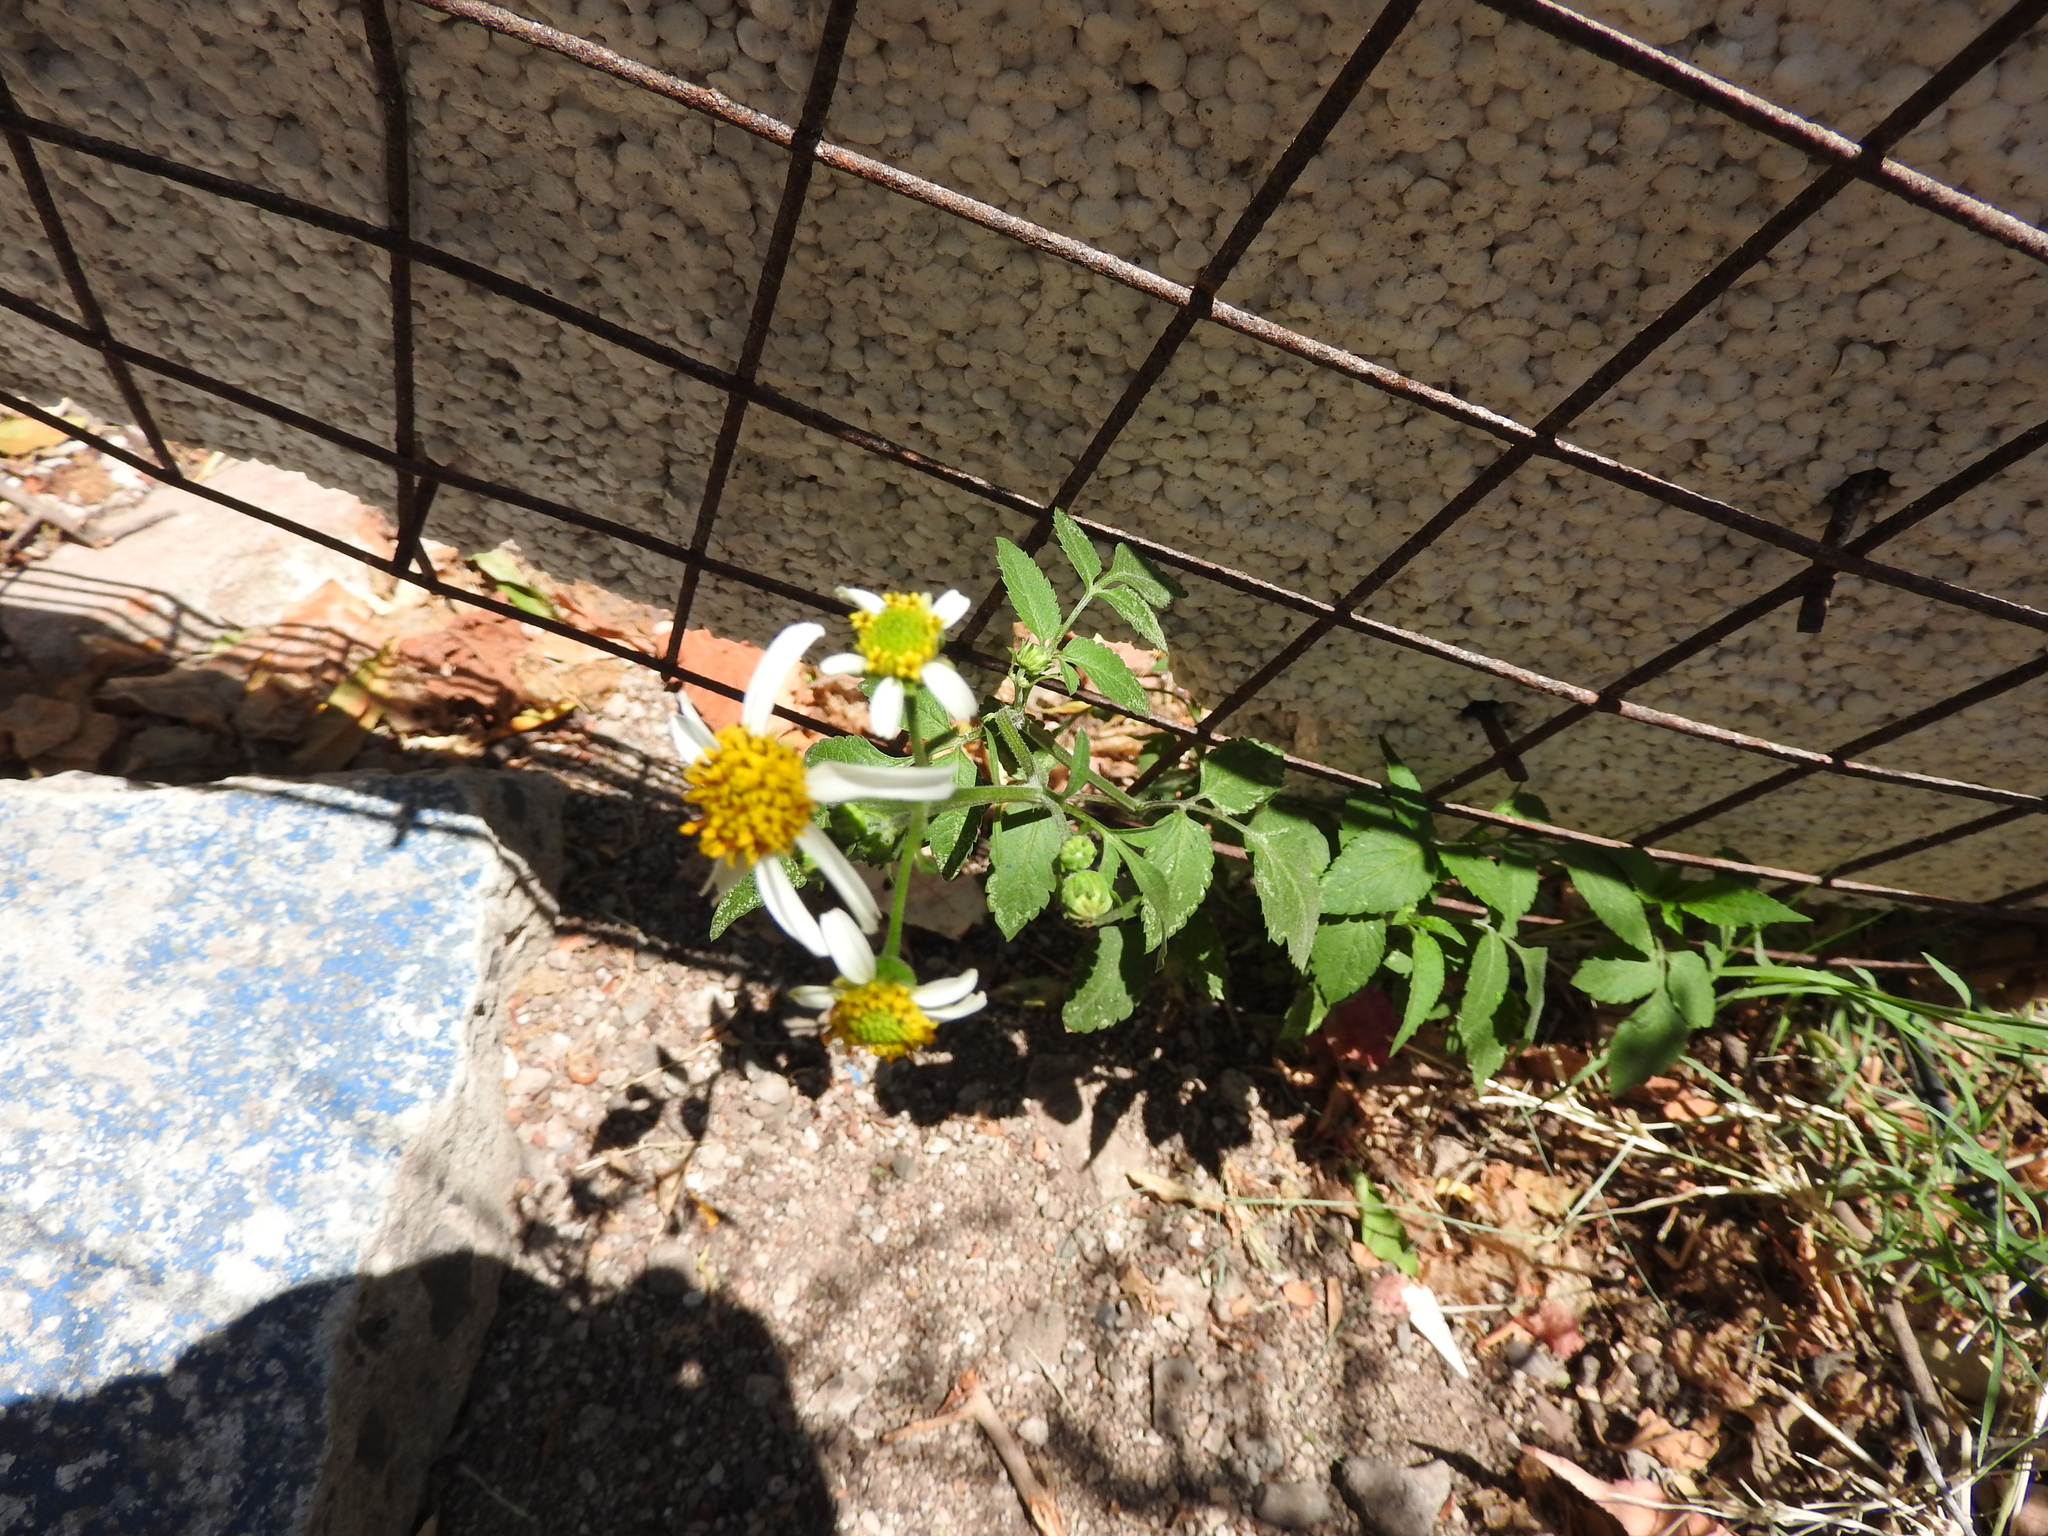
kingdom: Plantae
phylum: Tracheophyta
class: Magnoliopsida
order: Asterales
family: Asteraceae
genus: Bidens
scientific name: Bidens odorata
